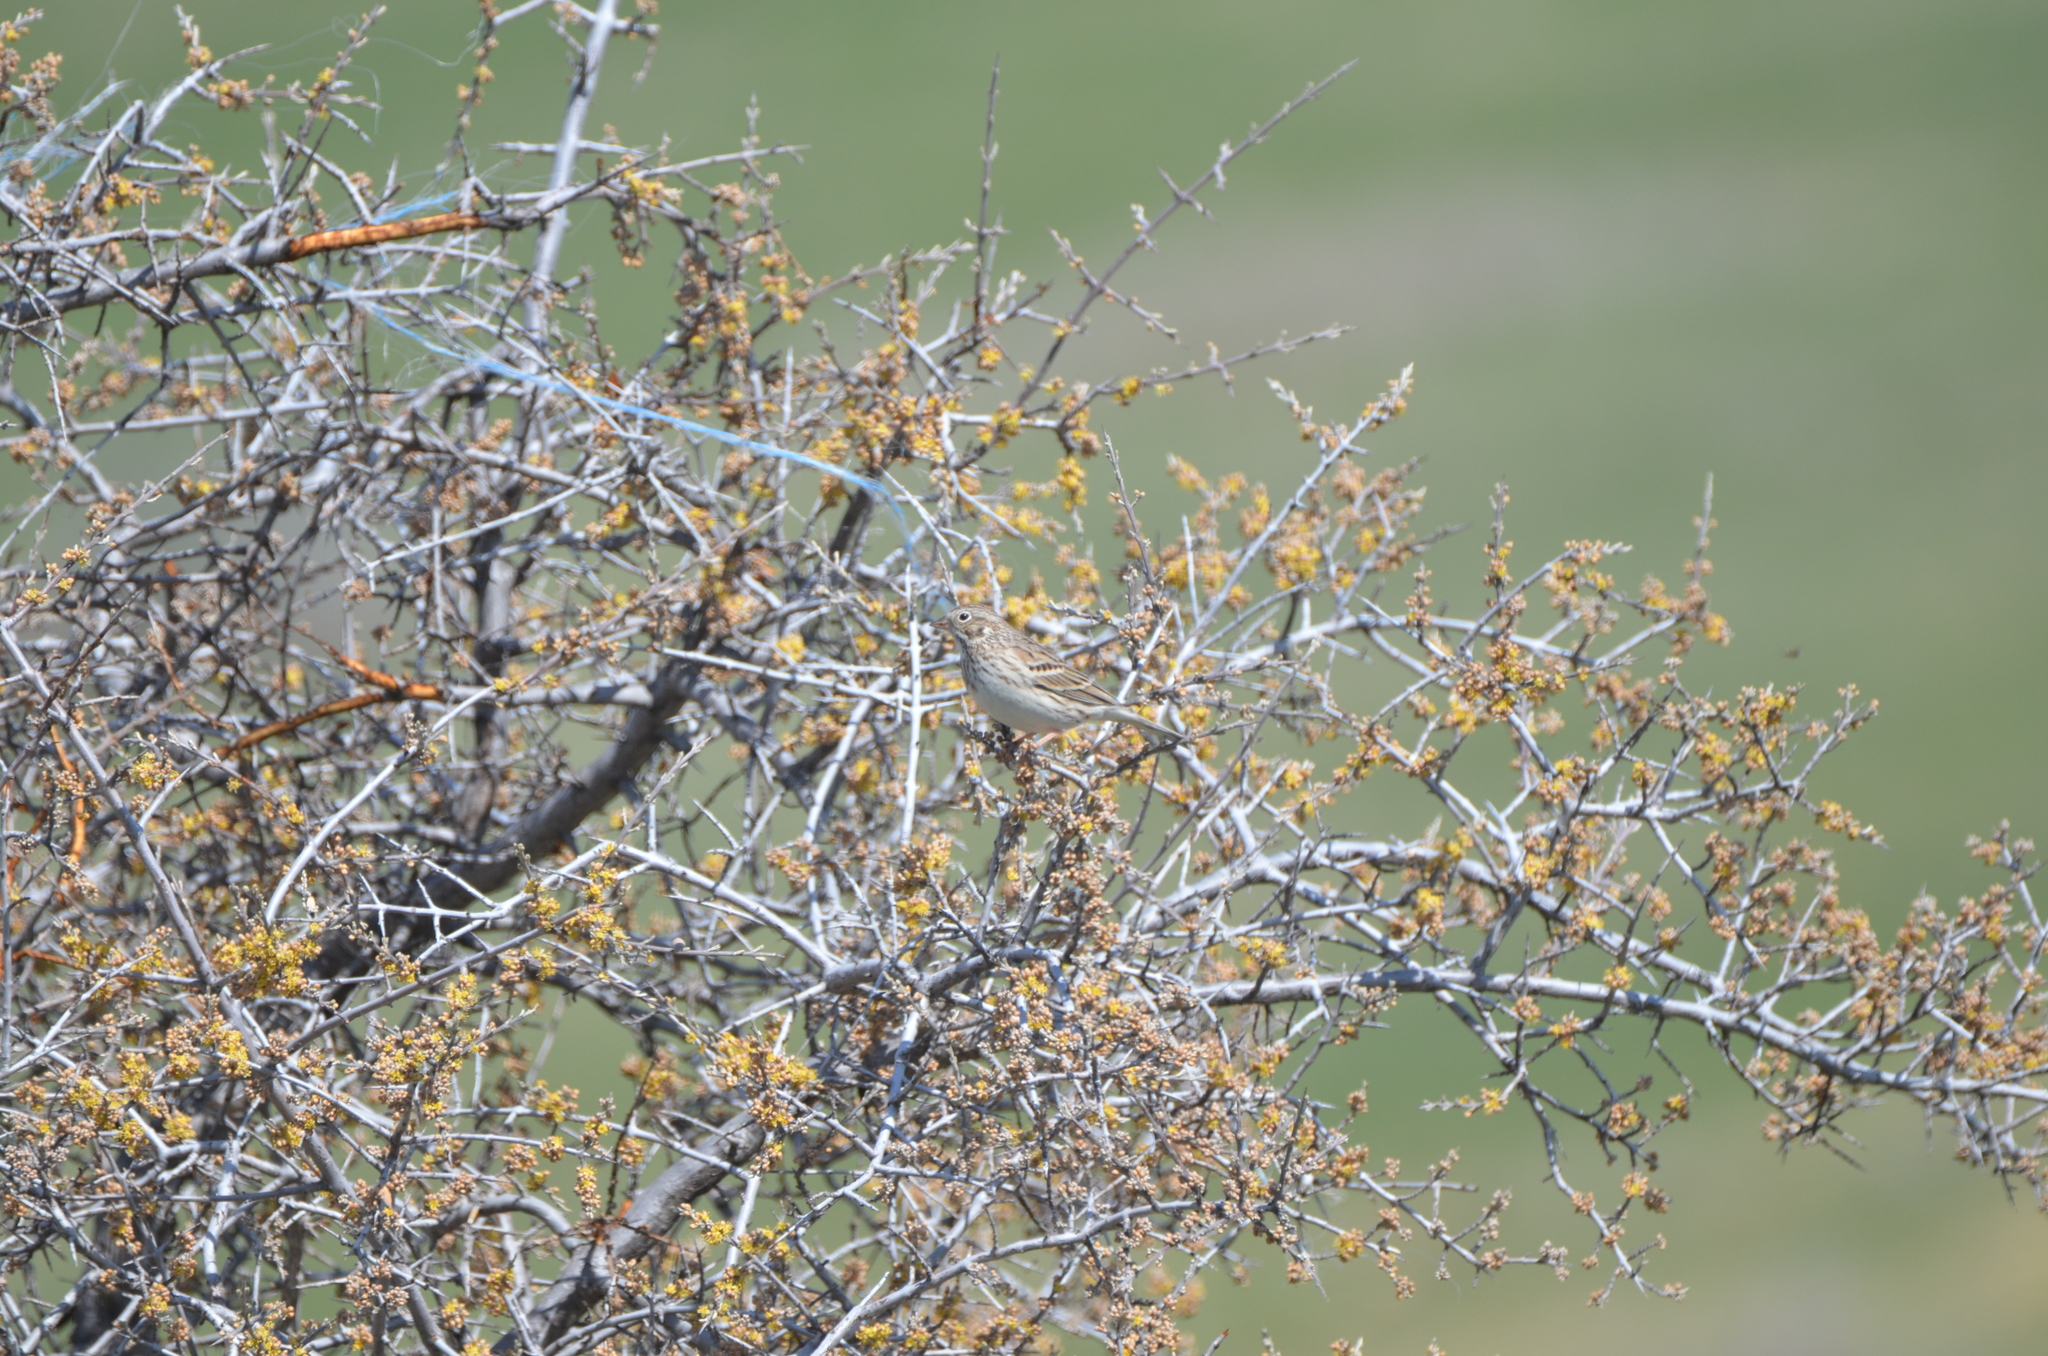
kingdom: Animalia
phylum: Chordata
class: Aves
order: Passeriformes
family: Passerellidae
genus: Pooecetes
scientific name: Pooecetes gramineus
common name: Vesper sparrow
